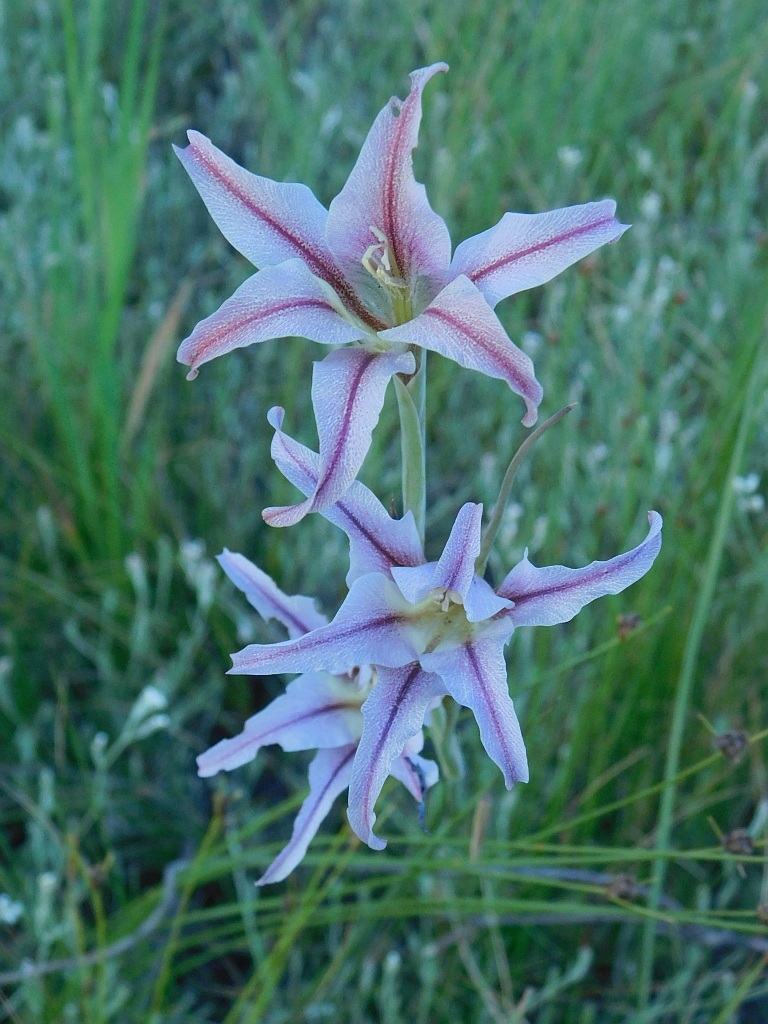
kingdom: Plantae
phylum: Tracheophyta
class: Liliopsida
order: Asparagales
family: Iridaceae
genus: Gladiolus
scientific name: Gladiolus liliaceus
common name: Large brown afrikaner
